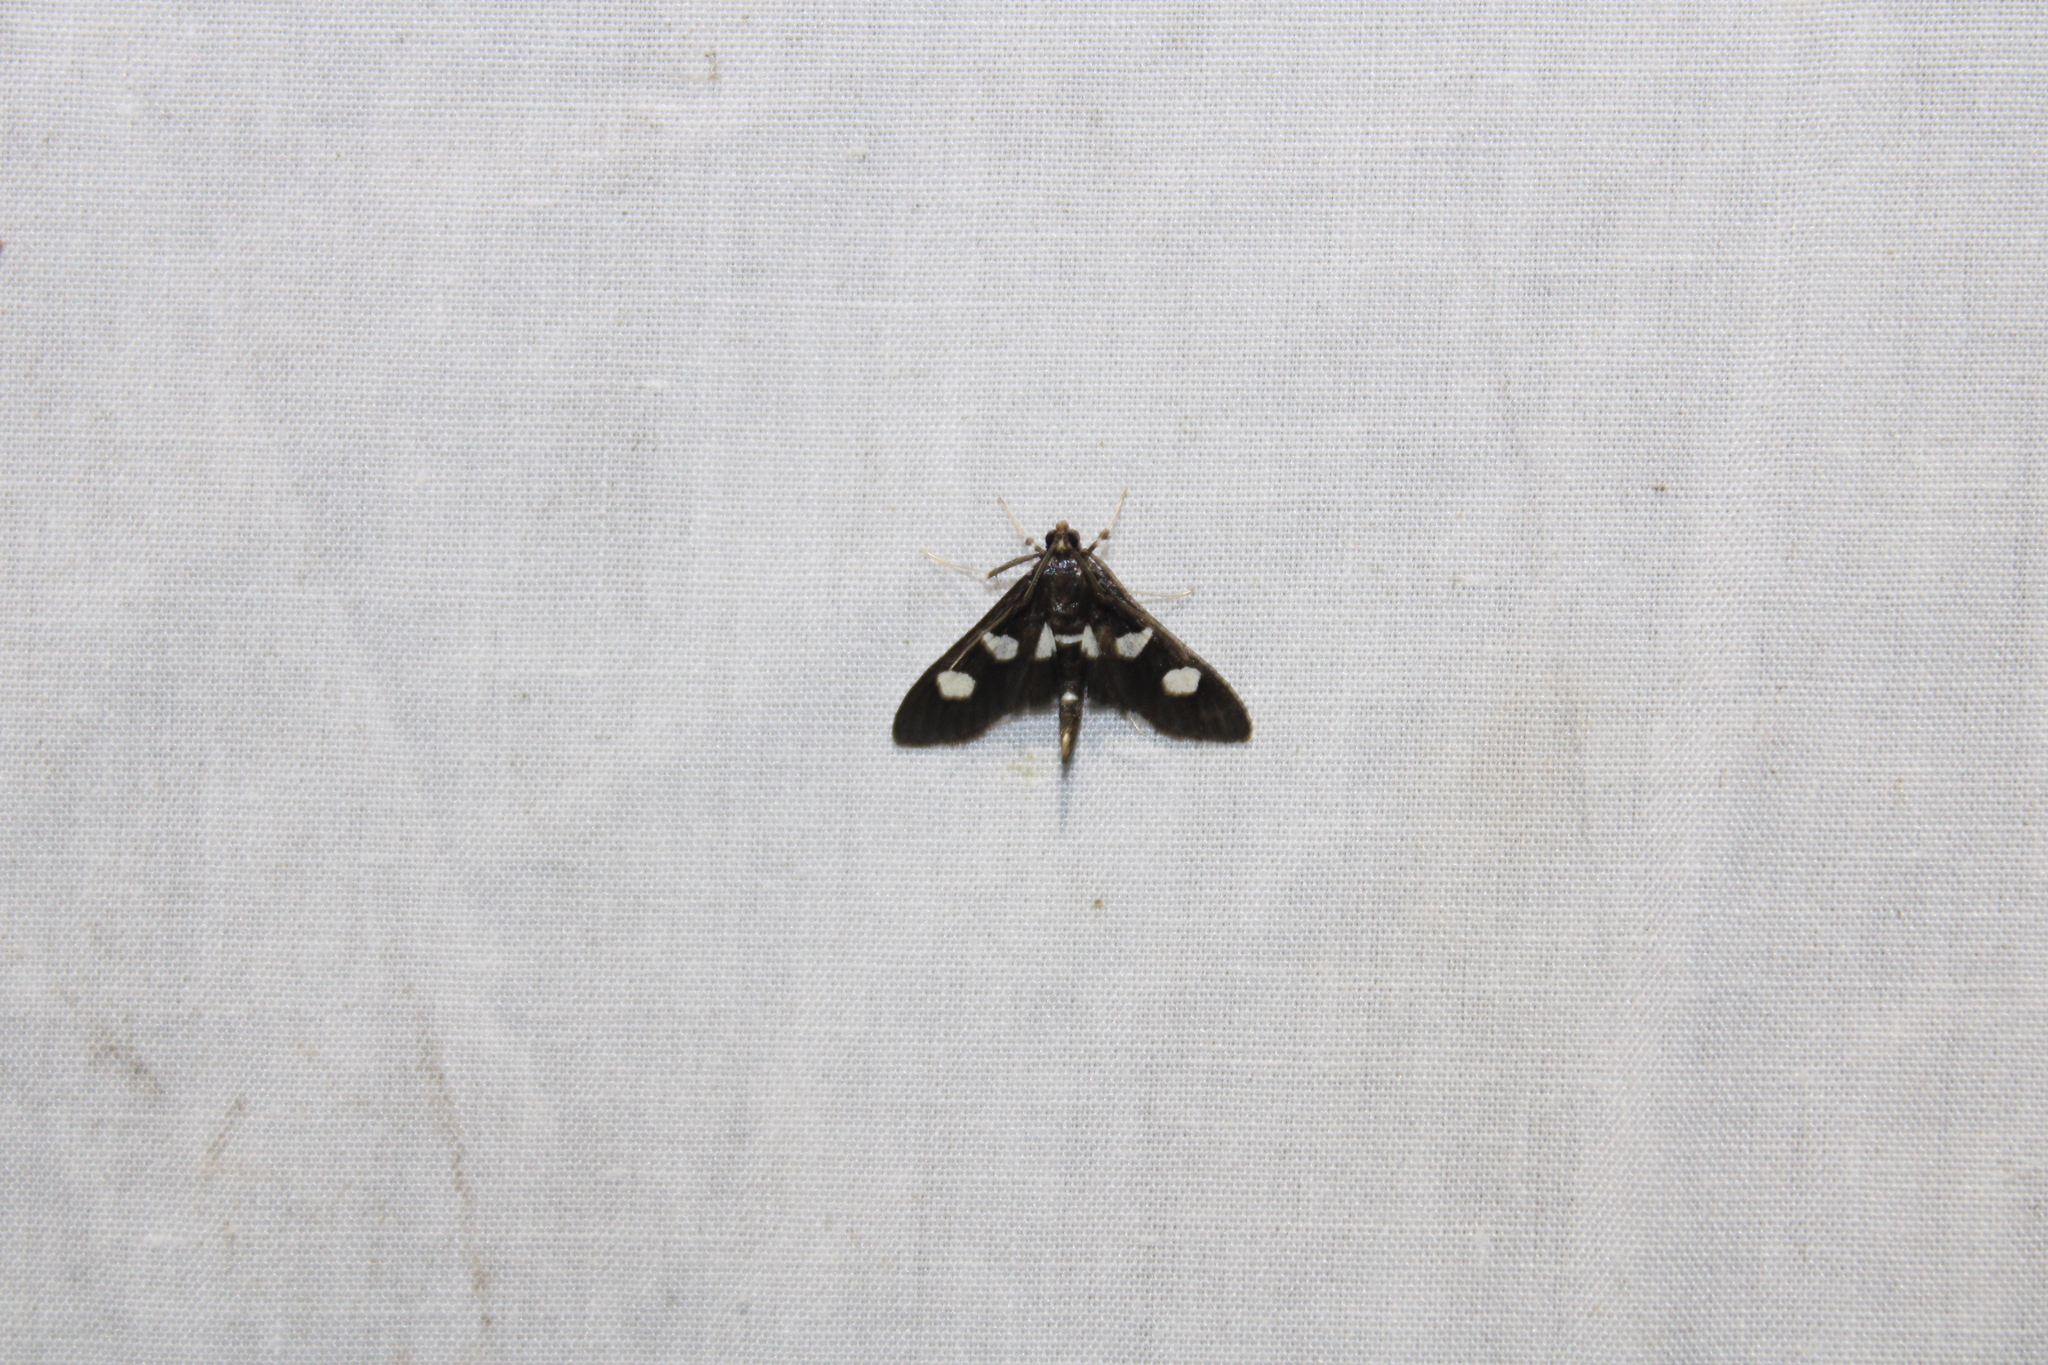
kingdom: Animalia
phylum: Arthropoda
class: Insecta
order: Lepidoptera
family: Crambidae
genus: Desmia
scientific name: Desmia
